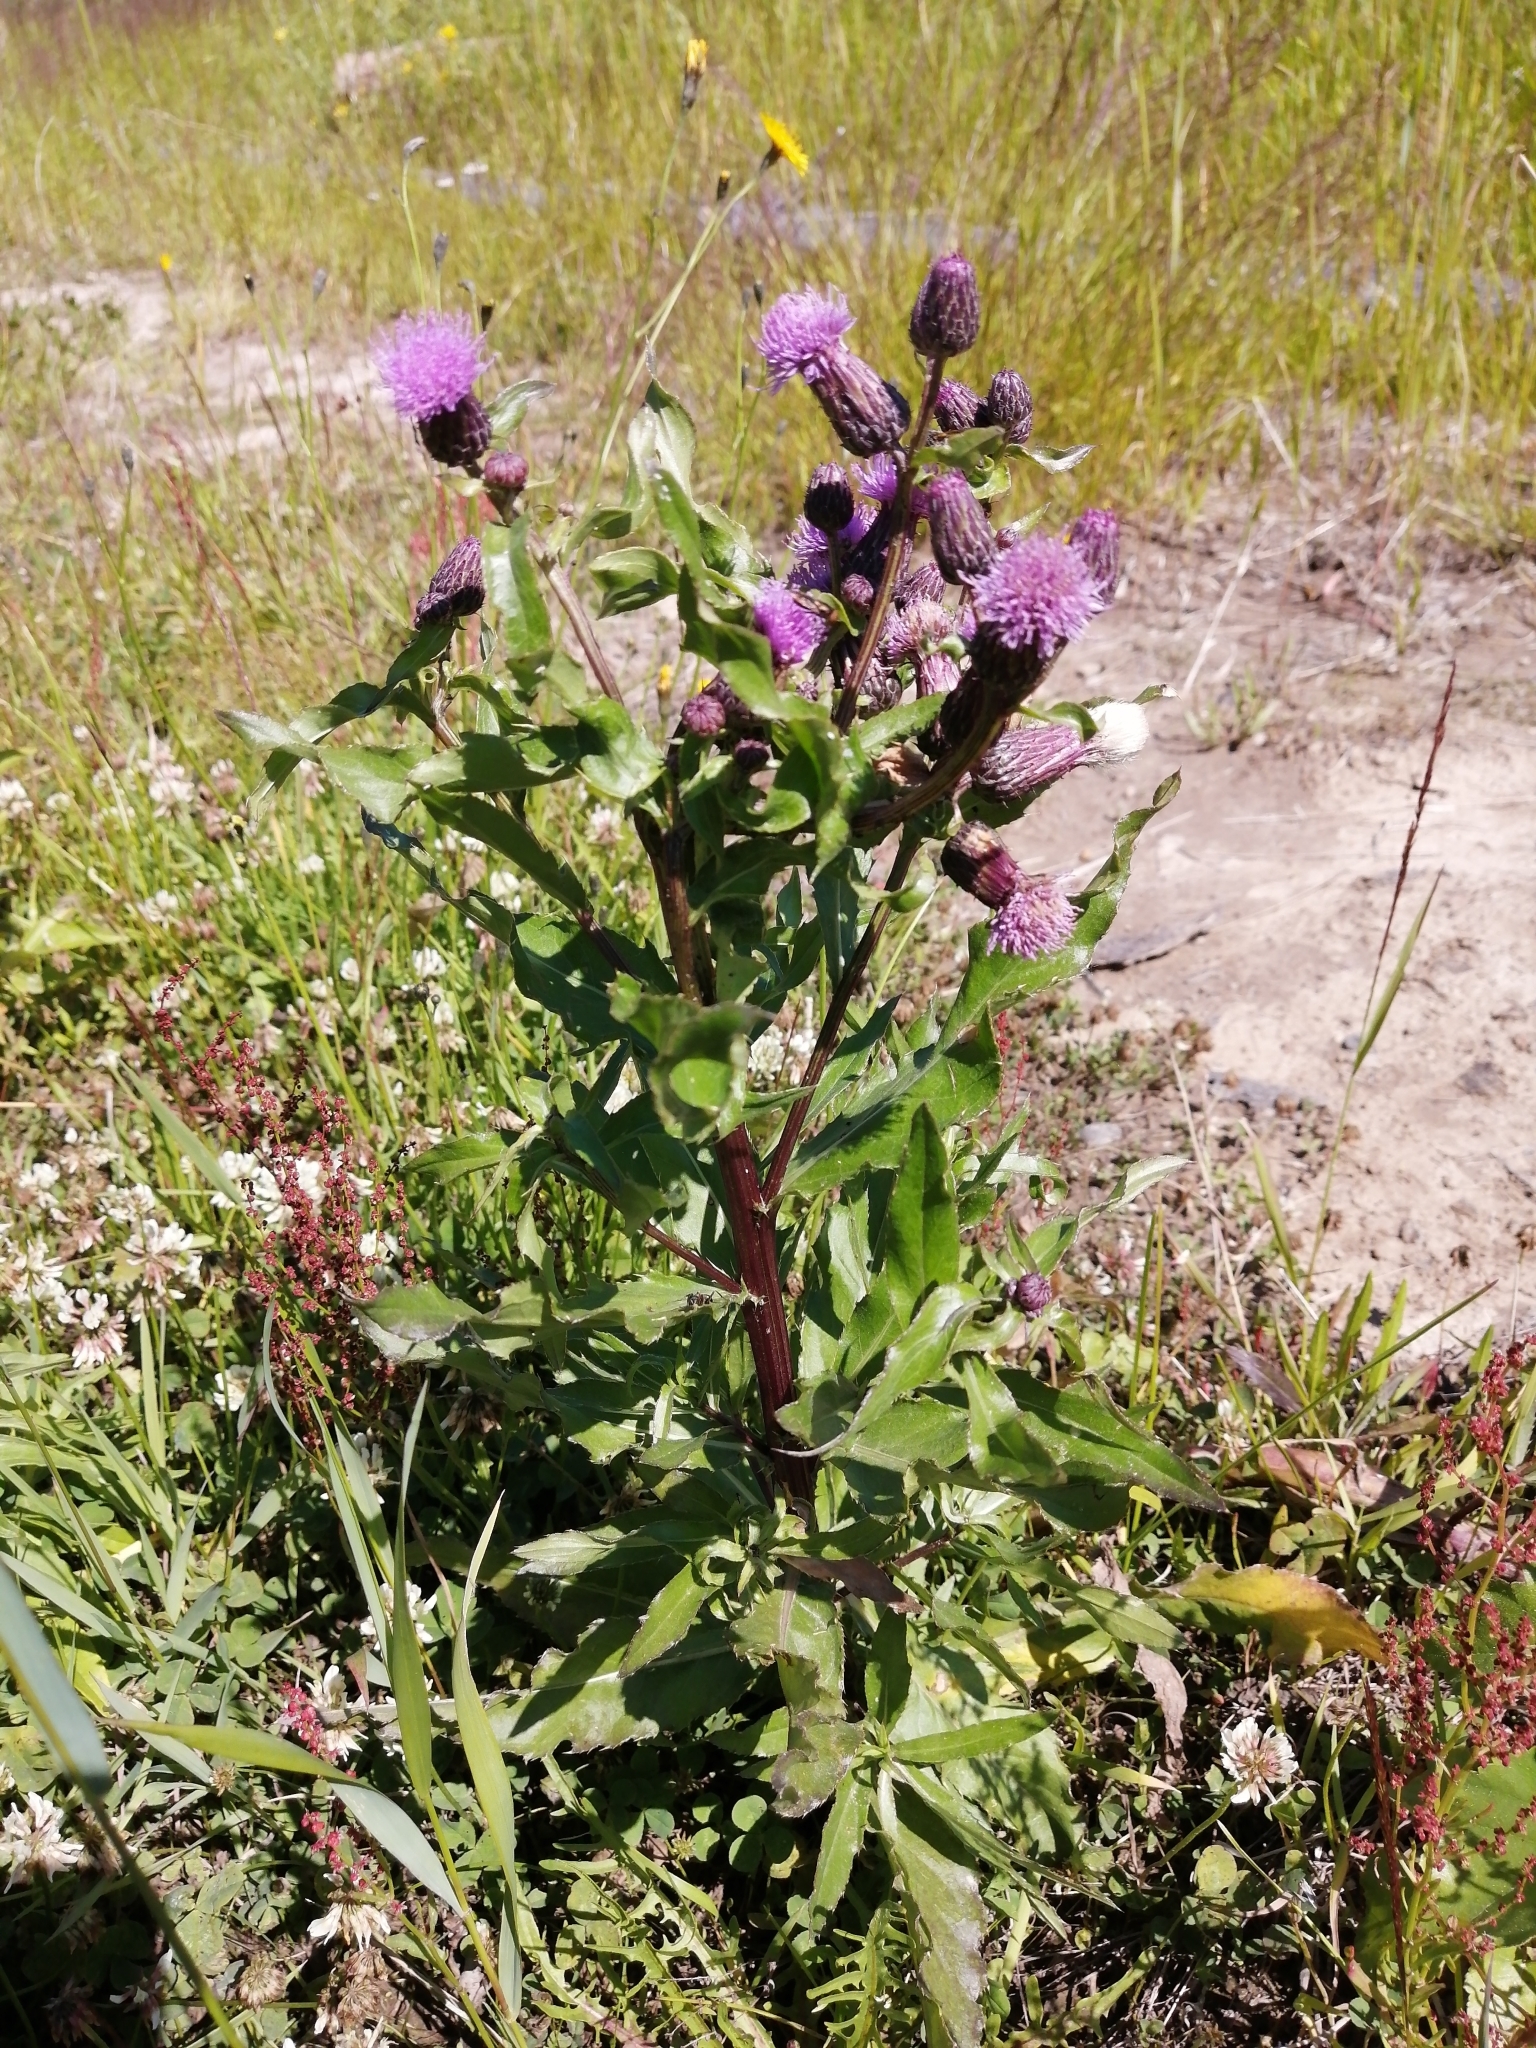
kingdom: Plantae
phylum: Tracheophyta
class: Magnoliopsida
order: Asterales
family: Asteraceae
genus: Cirsium
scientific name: Cirsium arvense
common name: Creeping thistle
